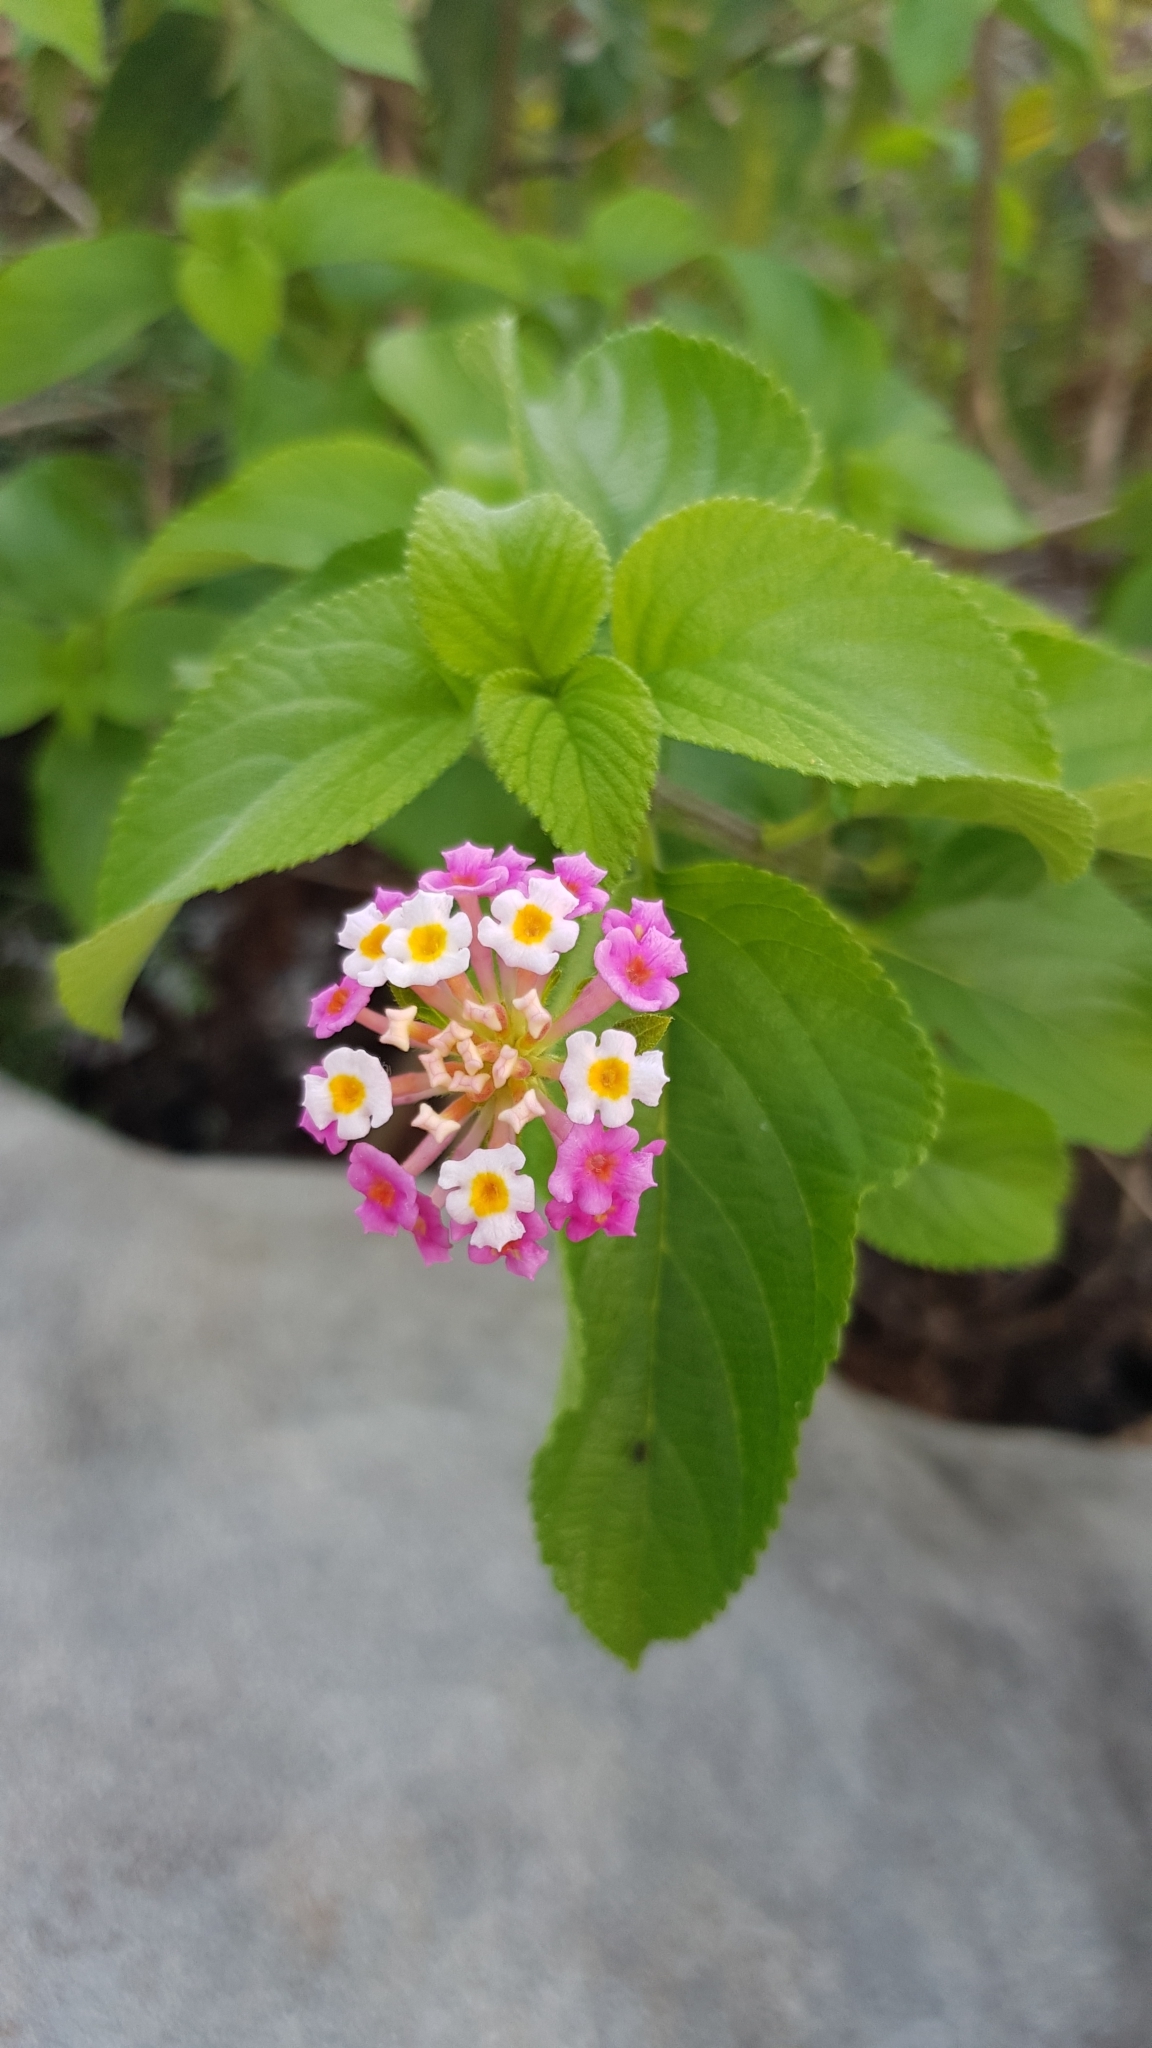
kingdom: Plantae
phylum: Tracheophyta
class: Magnoliopsida
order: Lamiales
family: Verbenaceae
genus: Lantana
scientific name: Lantana camara
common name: Lantana
